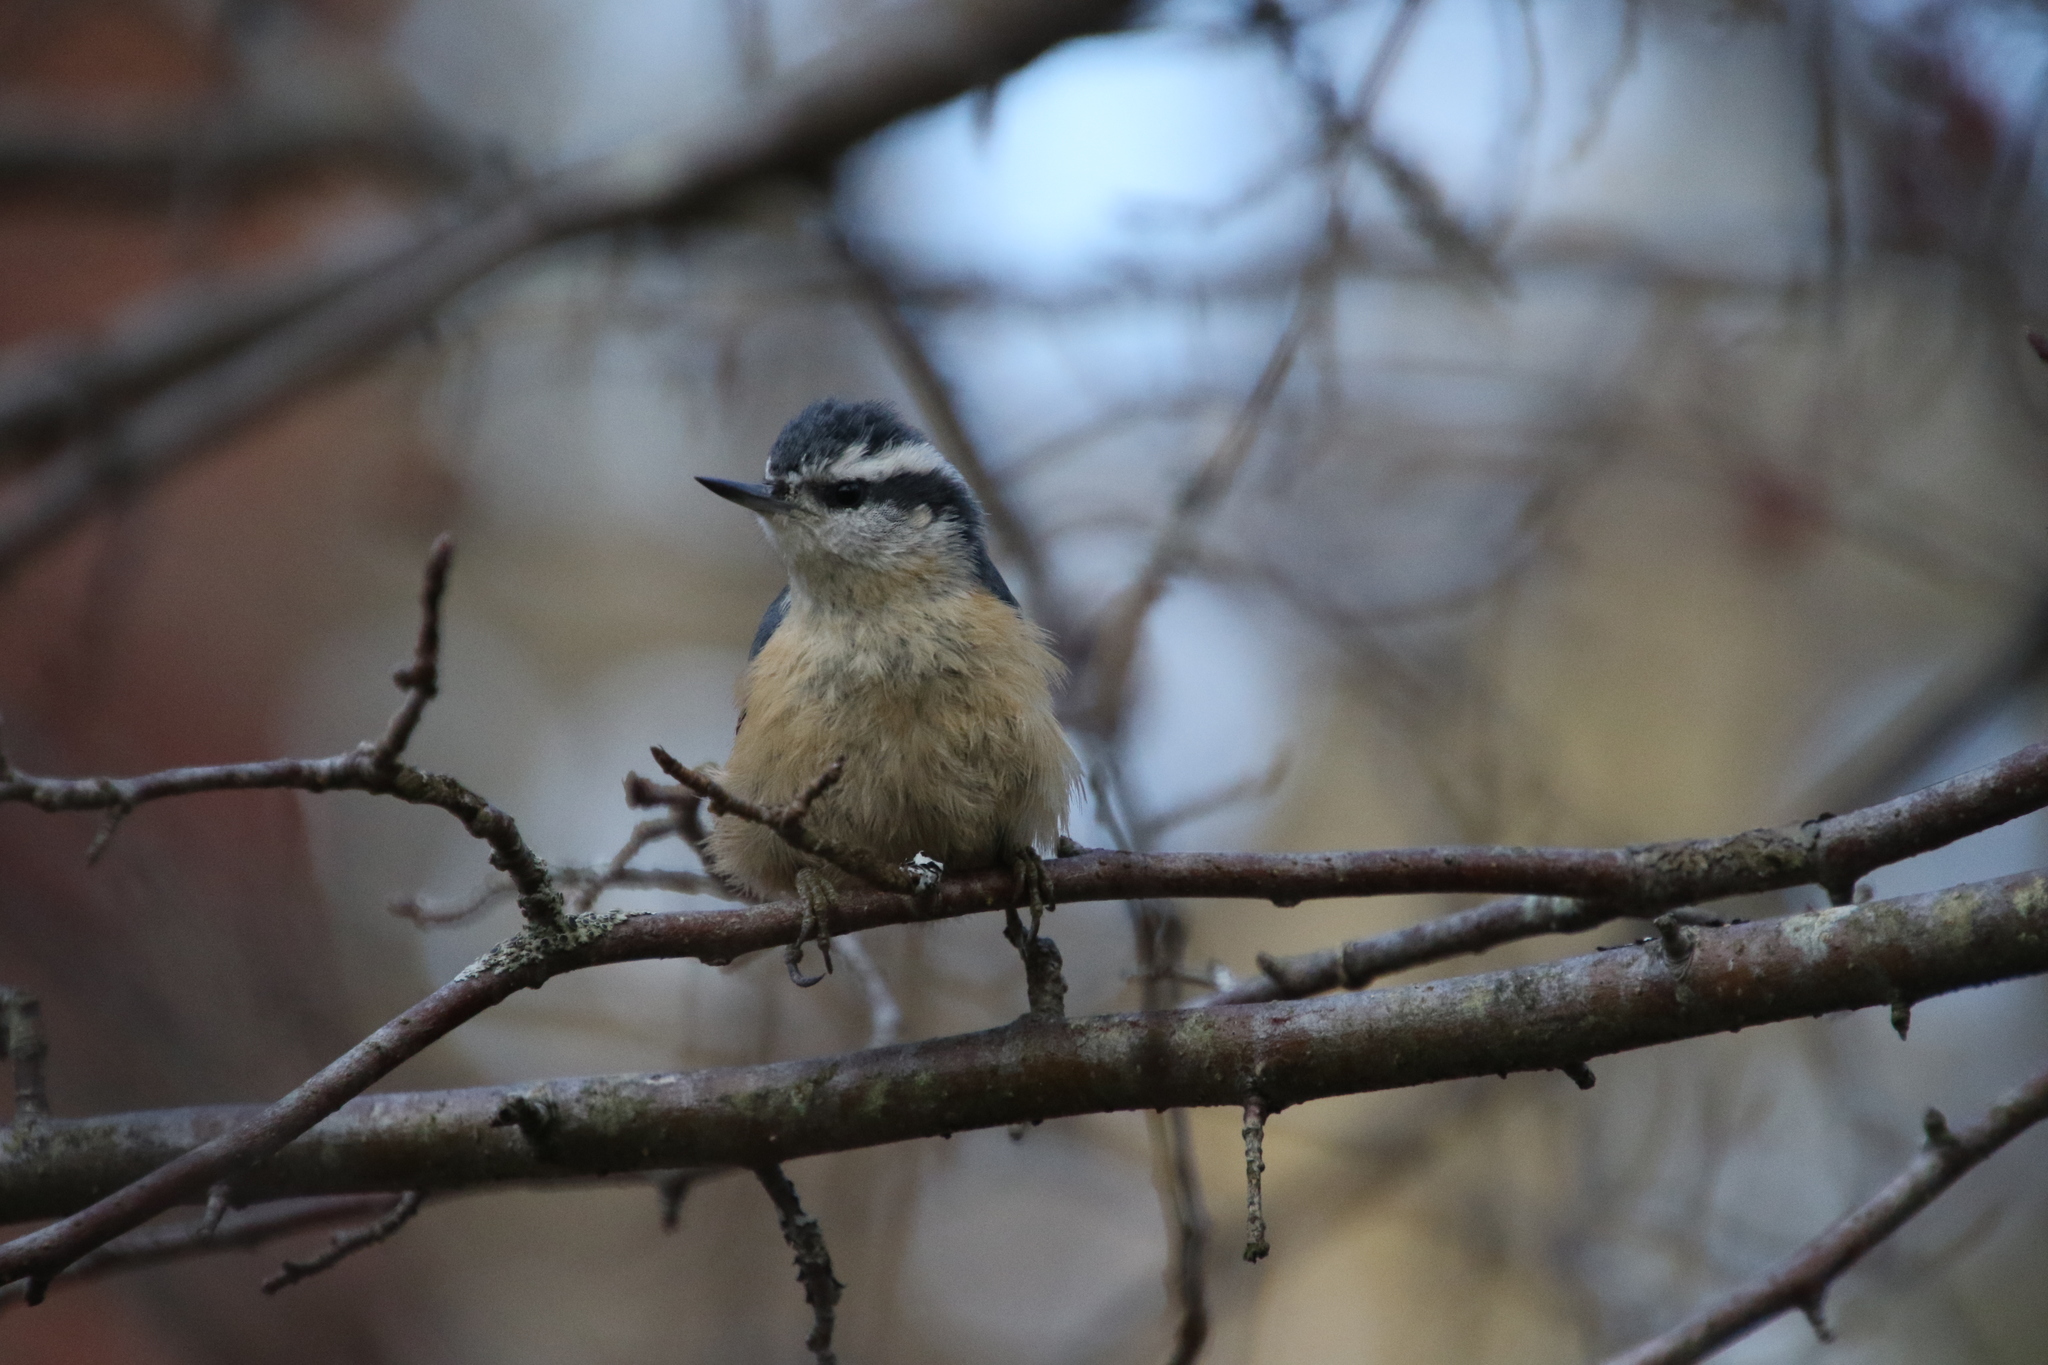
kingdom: Animalia
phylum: Chordata
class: Aves
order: Passeriformes
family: Sittidae
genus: Sitta
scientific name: Sitta canadensis
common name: Red-breasted nuthatch
